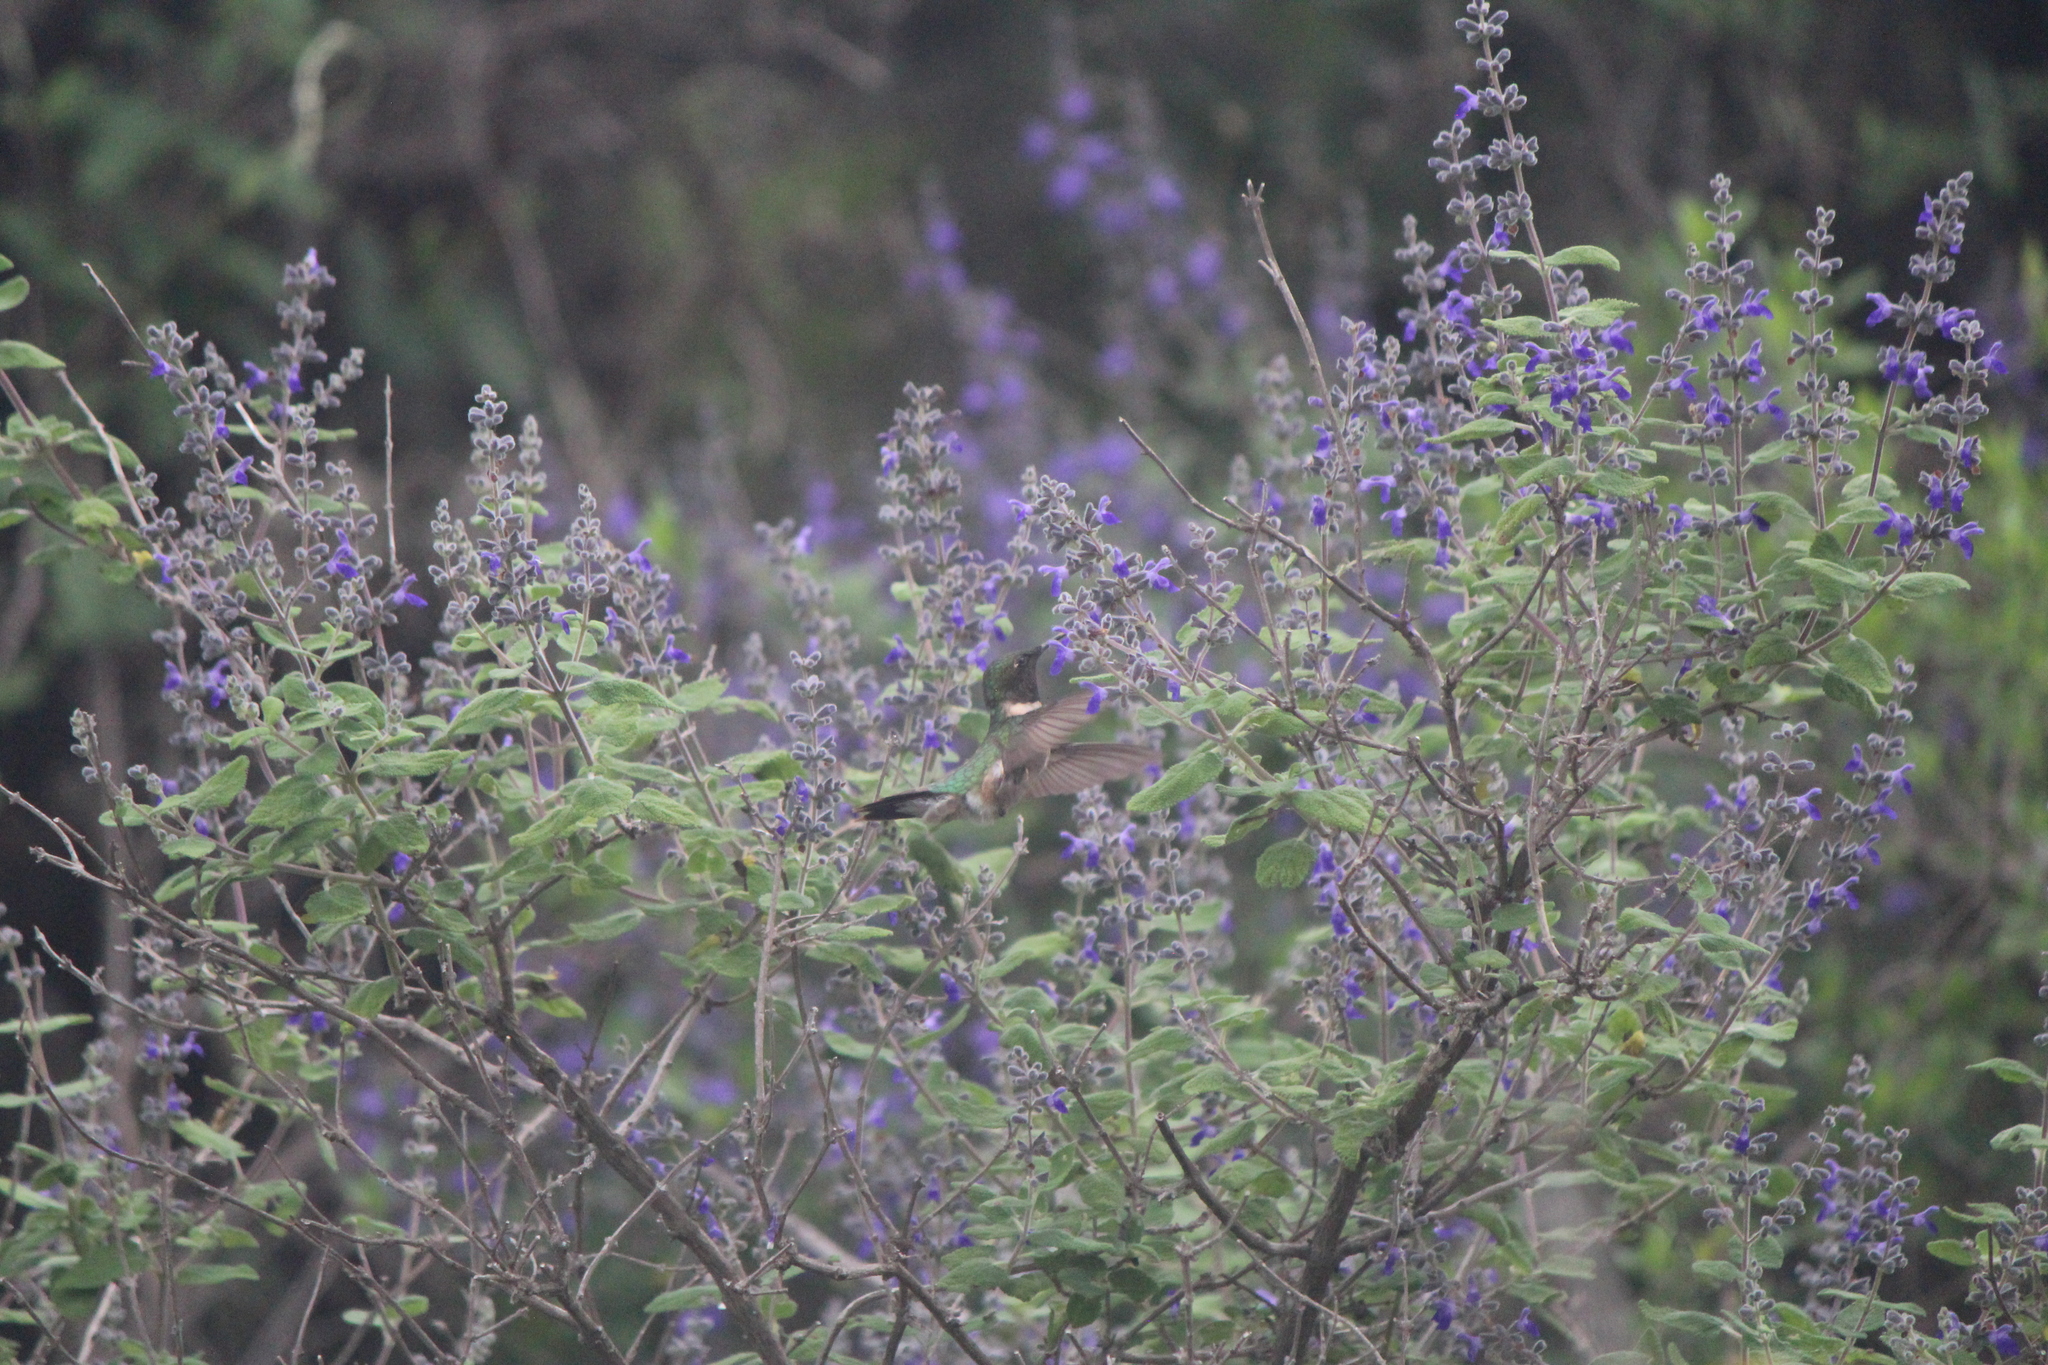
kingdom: Animalia
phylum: Chordata
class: Aves
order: Apodiformes
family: Trochilidae
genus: Archilochus
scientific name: Archilochus colubris
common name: Ruby-throated hummingbird
